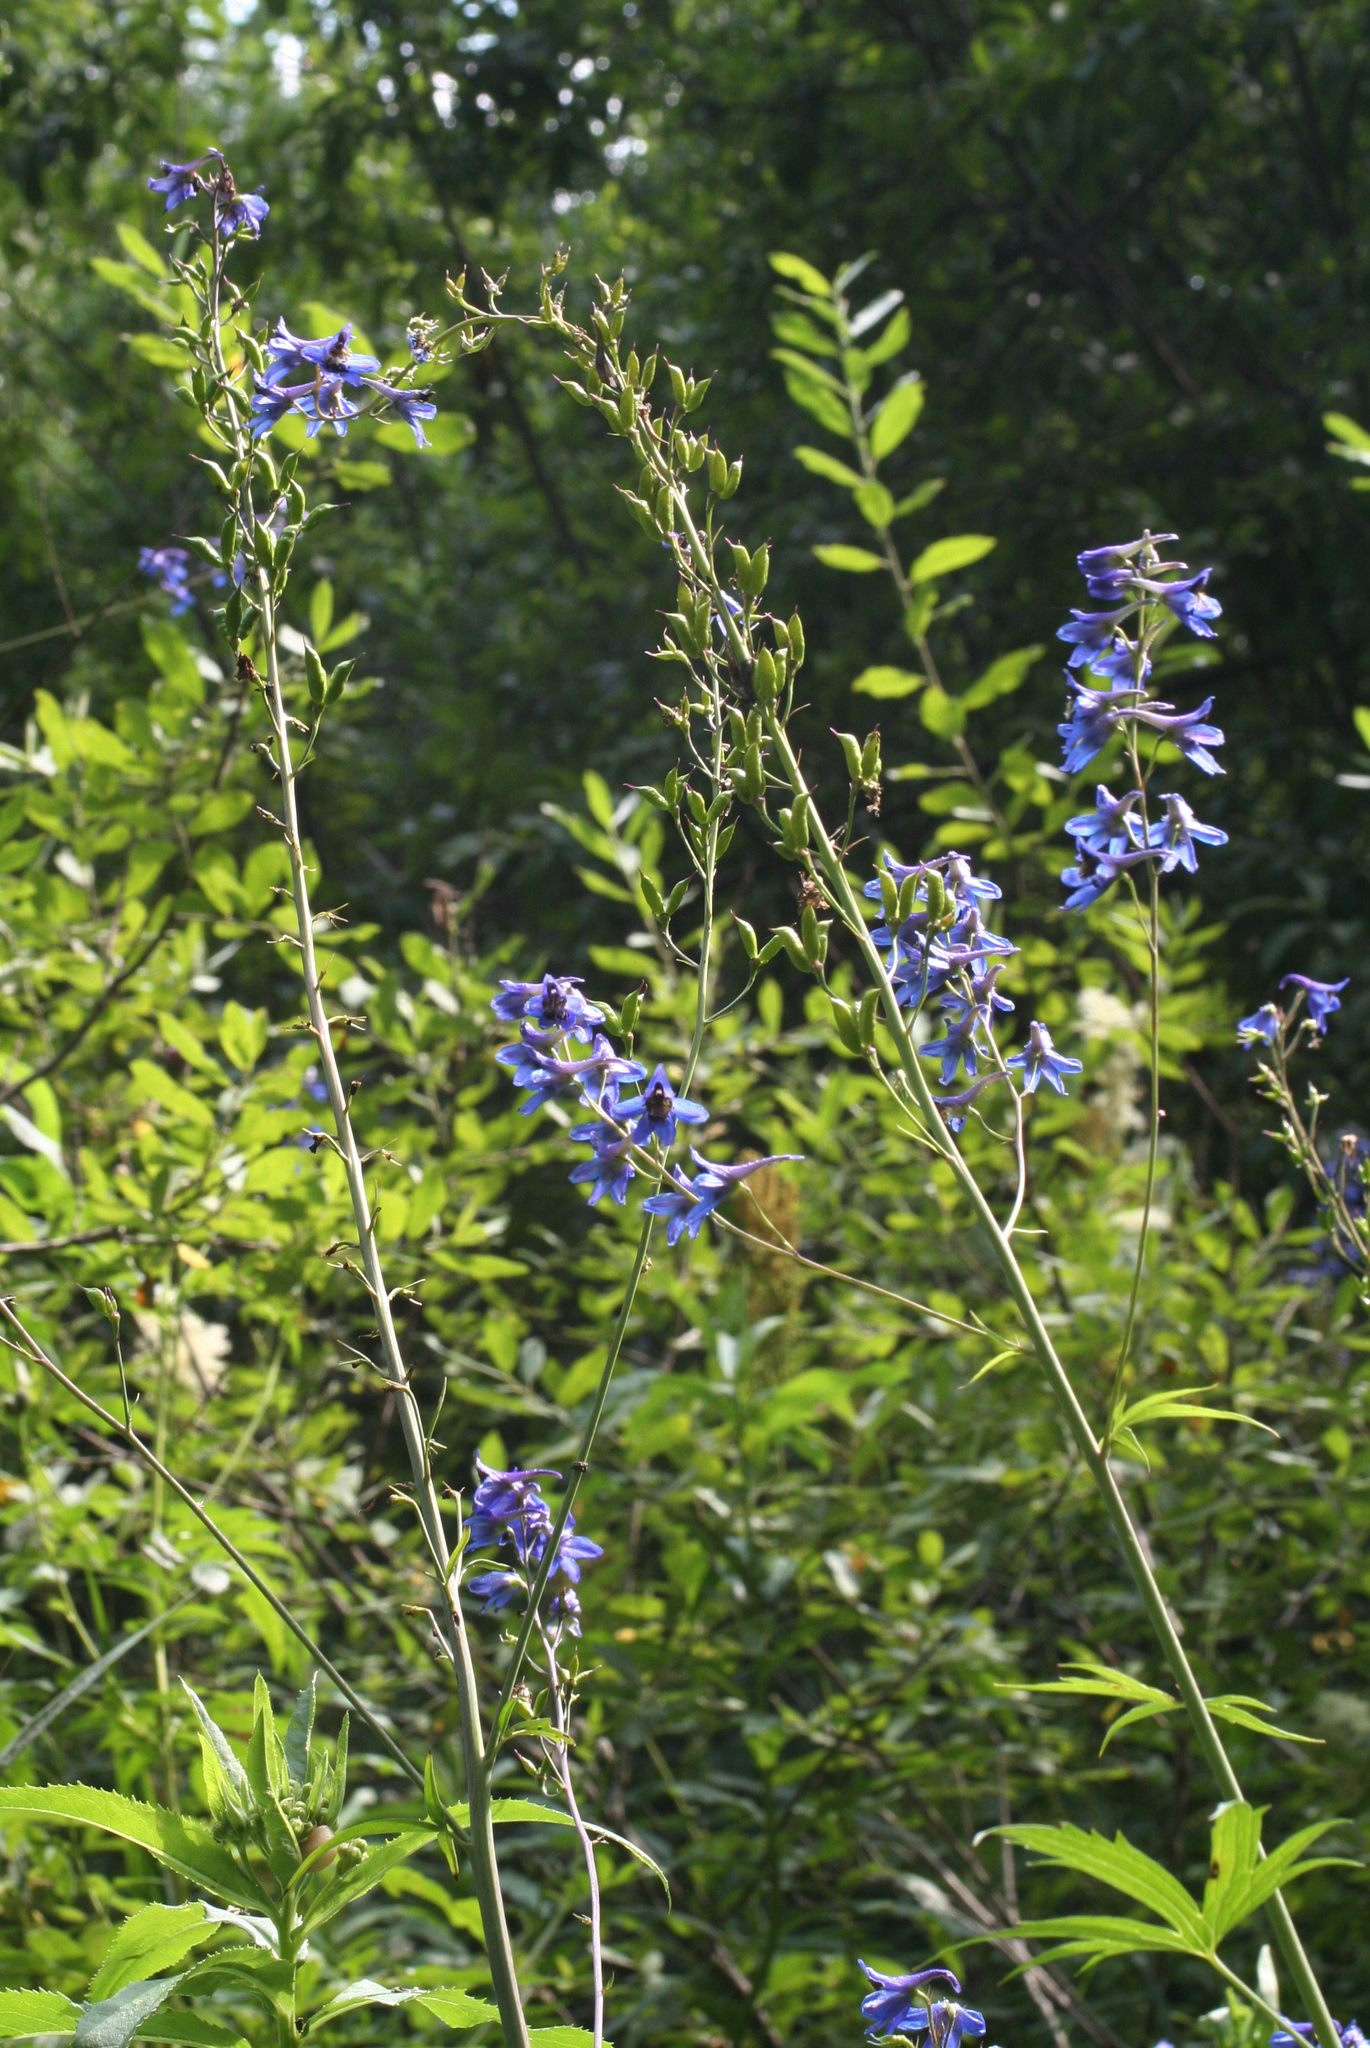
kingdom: Plantae
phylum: Tracheophyta
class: Magnoliopsida
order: Ranunculales
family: Ranunculaceae
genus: Delphinium
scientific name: Delphinium elatum
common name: Candle larkspur
